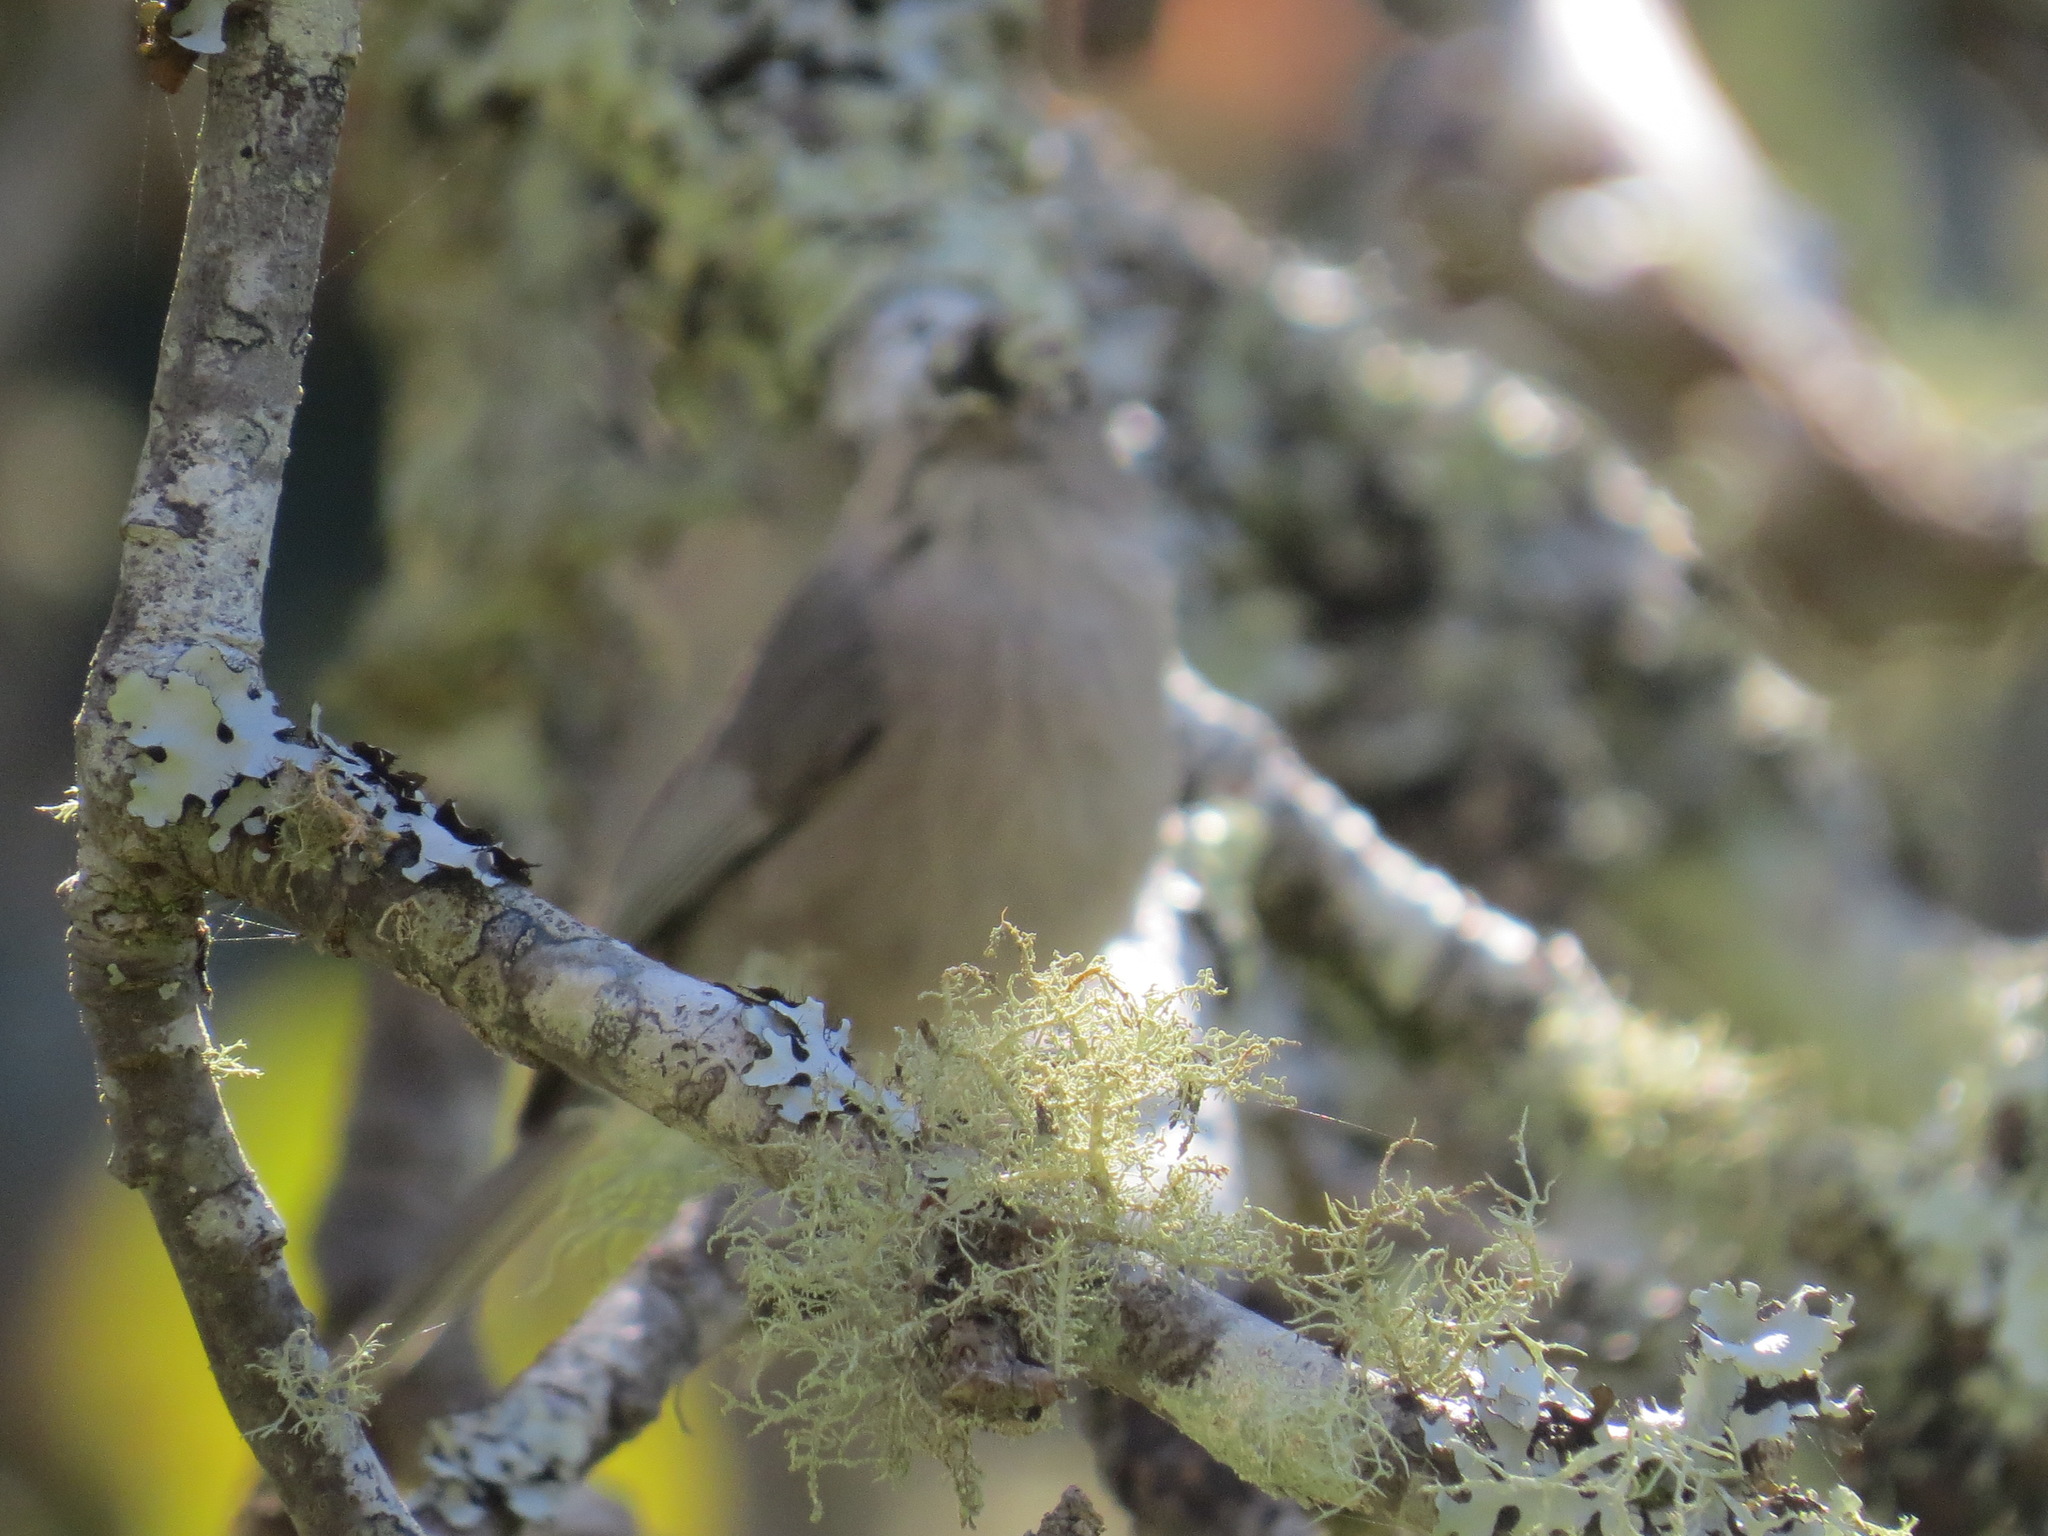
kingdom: Animalia
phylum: Chordata
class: Aves
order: Passeriformes
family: Aegithalidae
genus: Psaltriparus
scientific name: Psaltriparus minimus
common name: American bushtit
